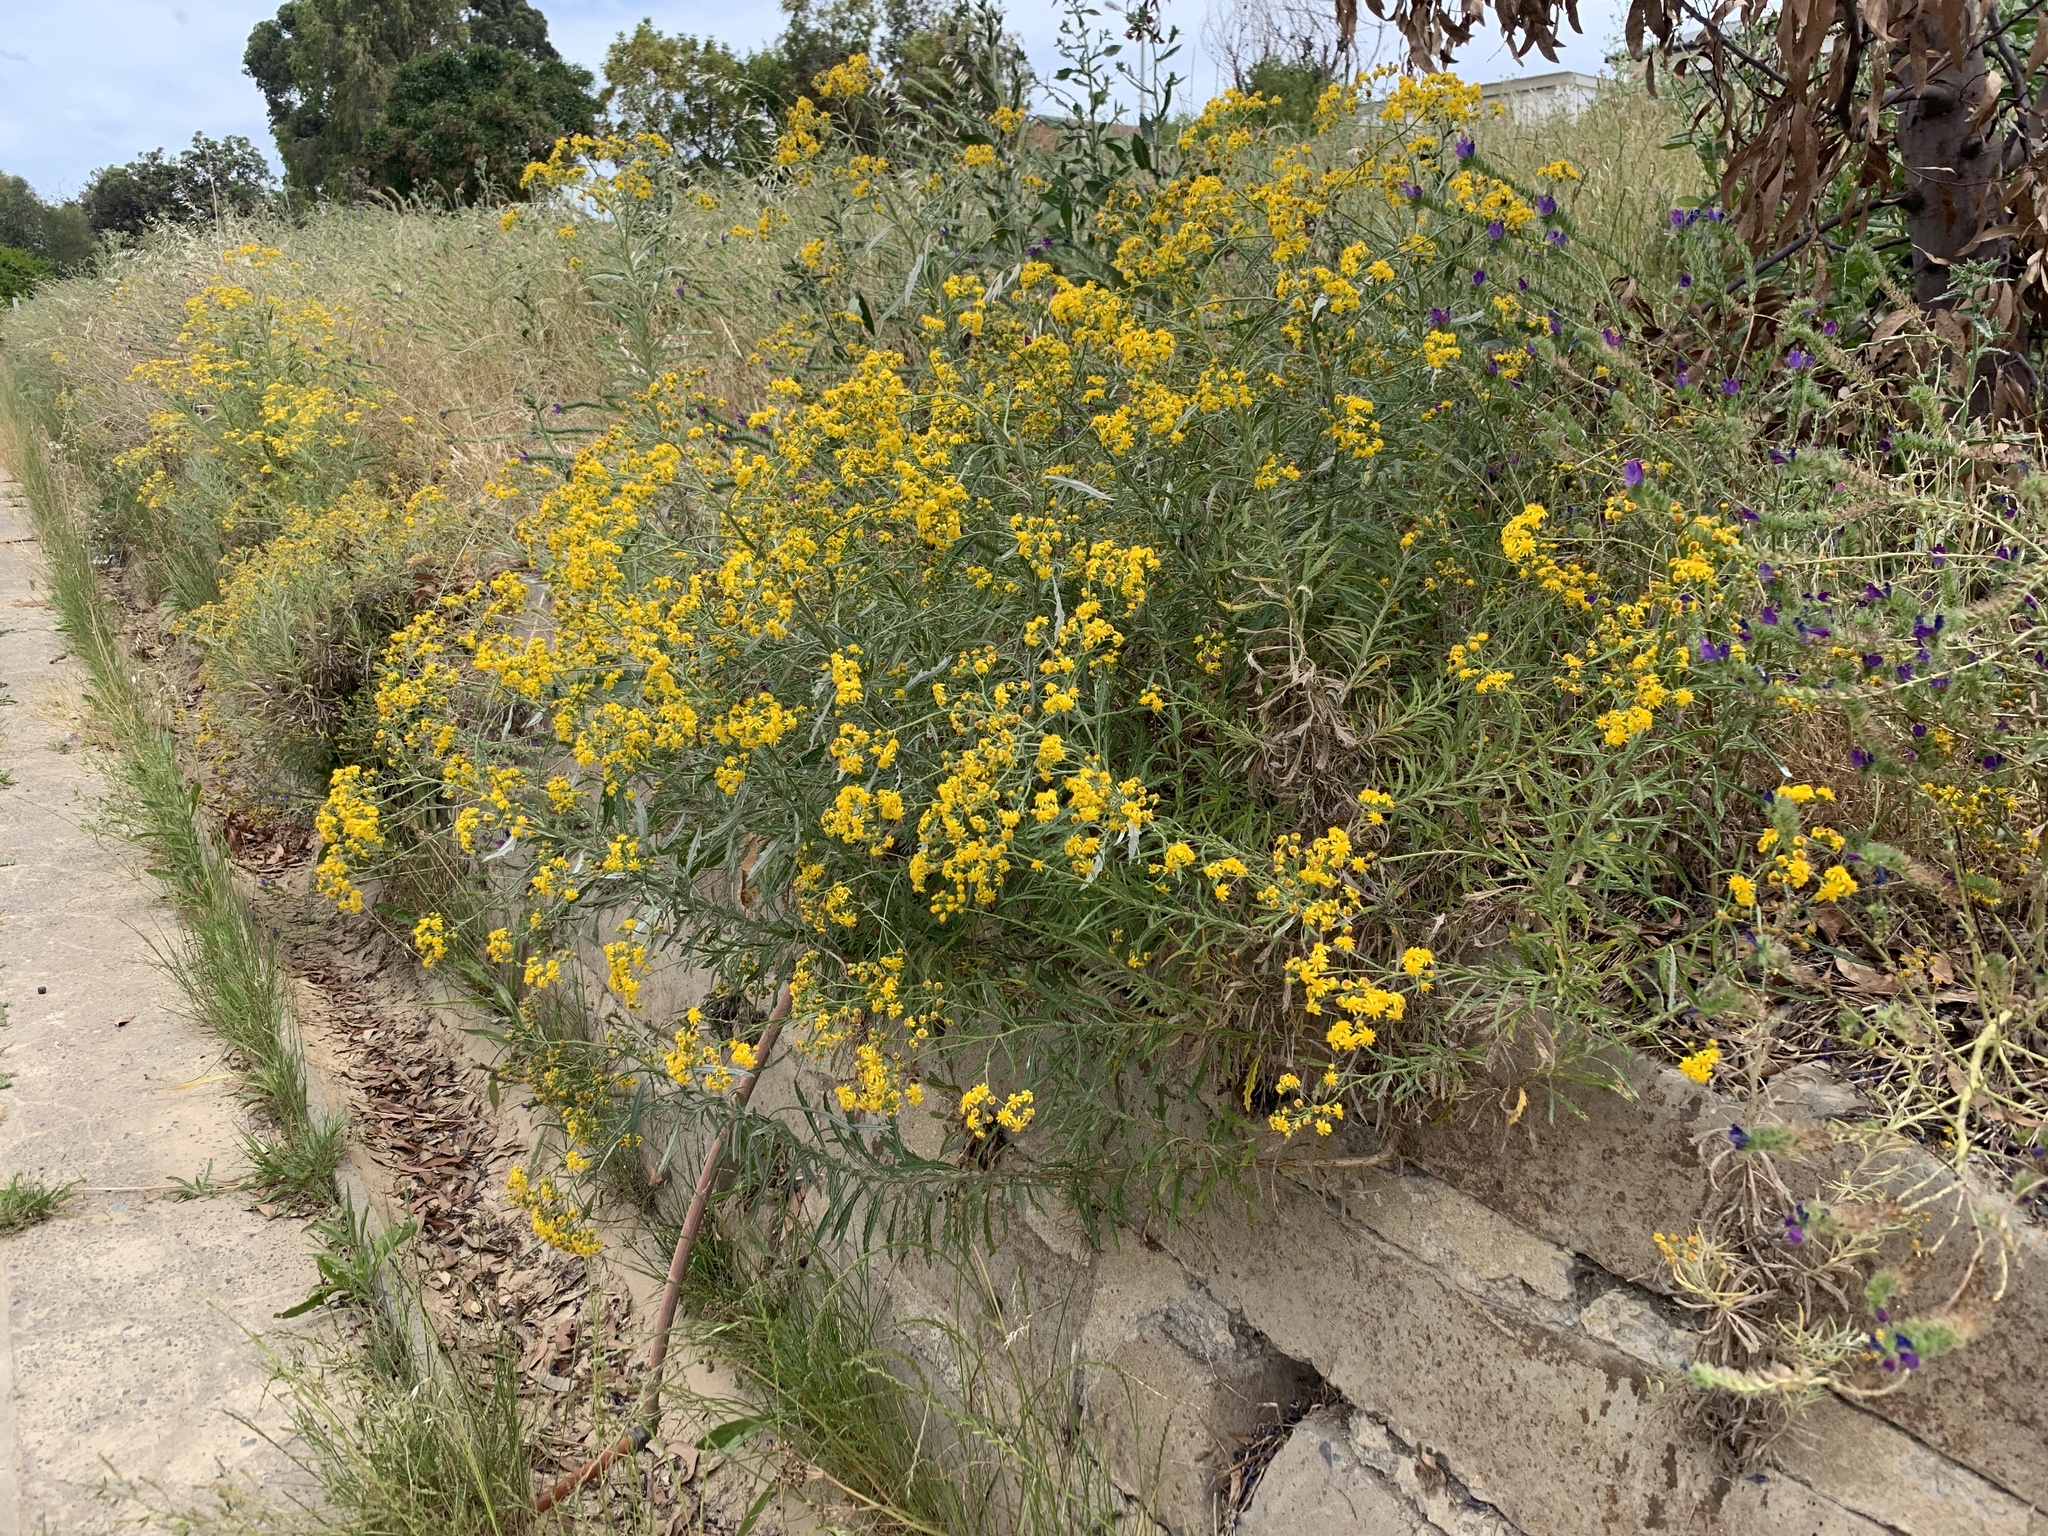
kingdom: Plantae
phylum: Tracheophyta
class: Magnoliopsida
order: Asterales
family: Asteraceae
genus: Senecio
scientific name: Senecio pterophorus
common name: Shoddy ragwort
